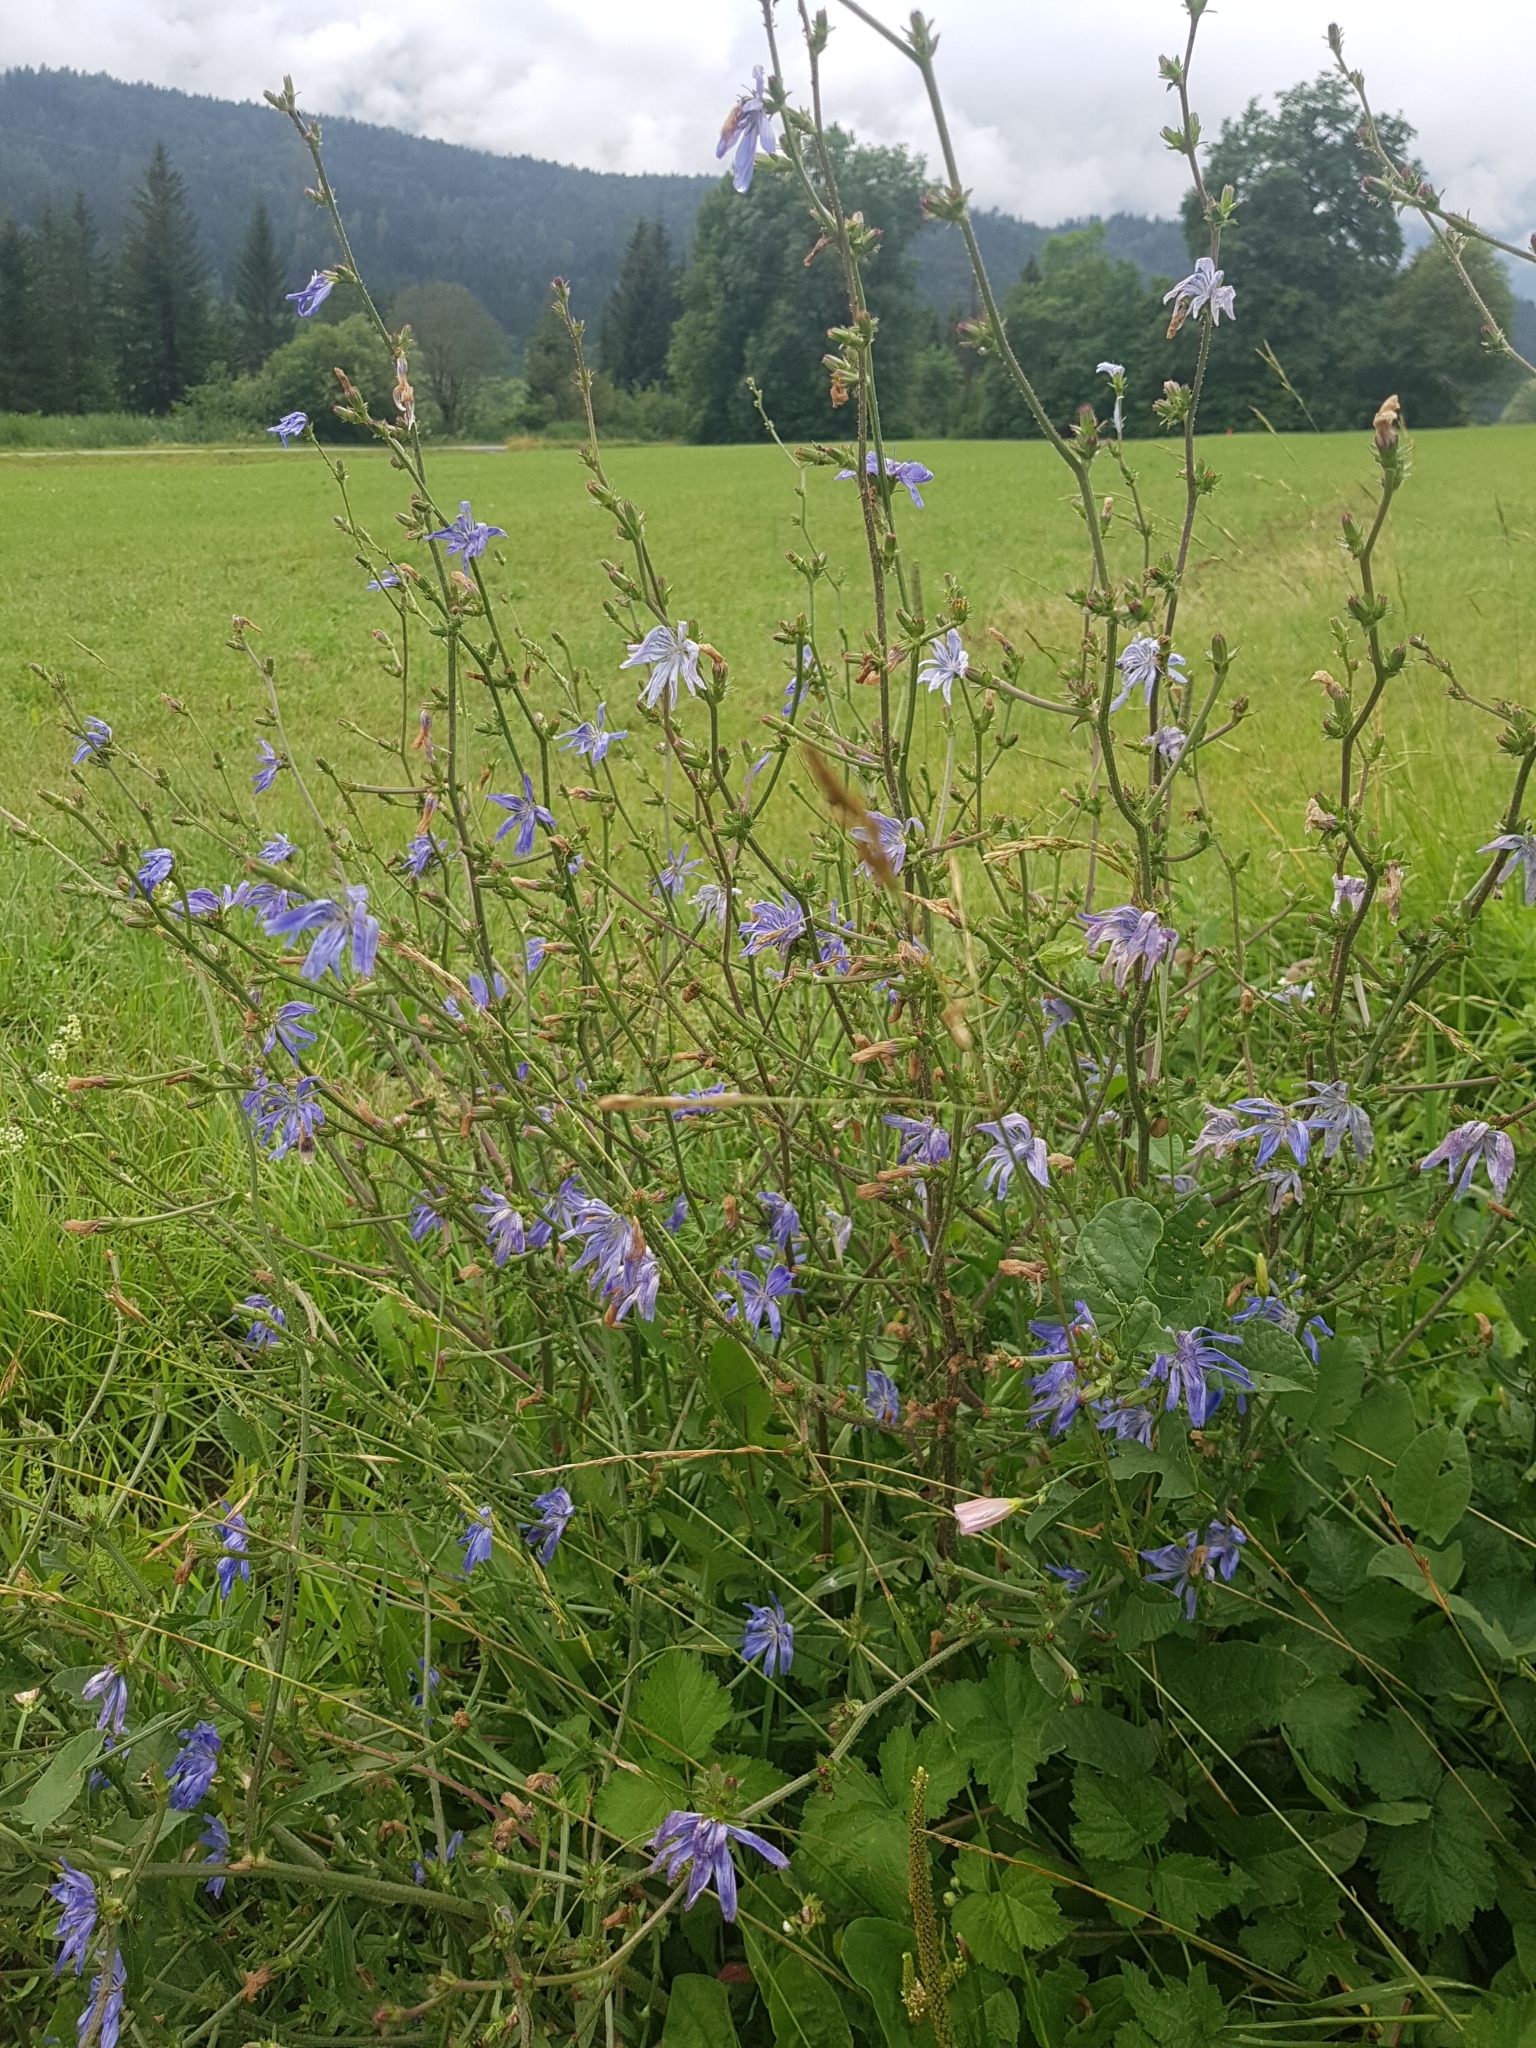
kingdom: Plantae
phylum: Tracheophyta
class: Magnoliopsida
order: Asterales
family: Asteraceae
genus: Cichorium
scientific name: Cichorium intybus
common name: Chicory
